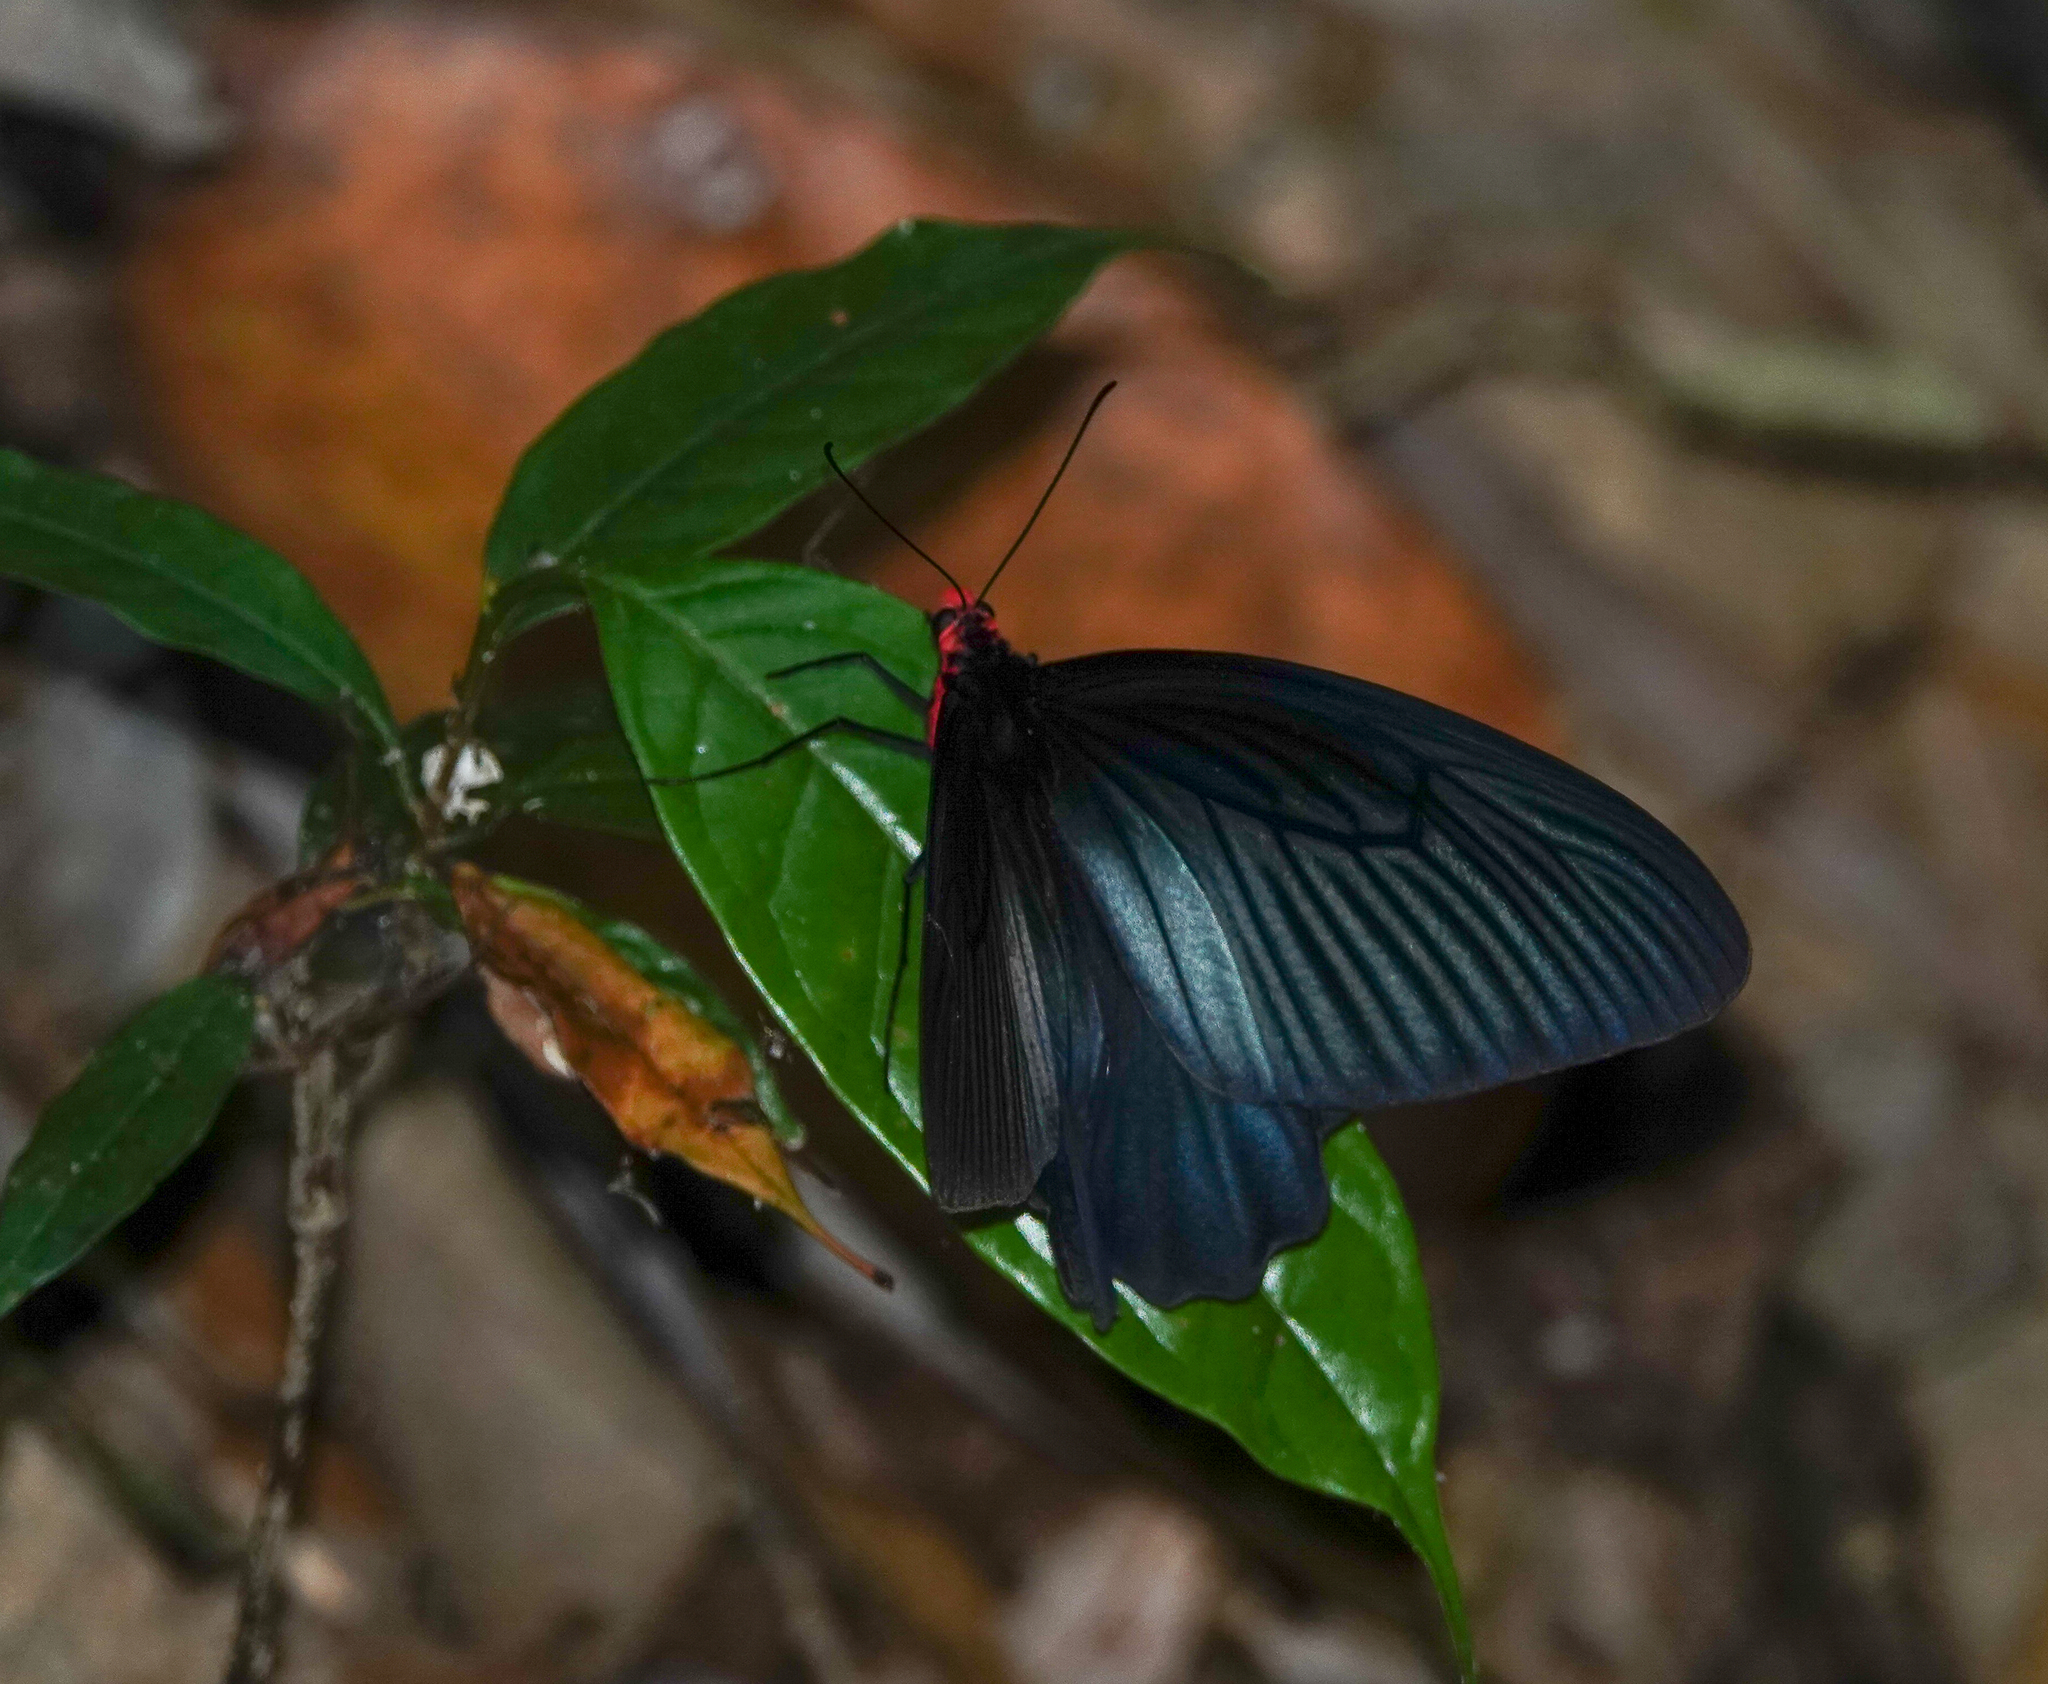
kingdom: Animalia
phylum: Arthropoda
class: Insecta
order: Lepidoptera
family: Papilionidae
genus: Papilio
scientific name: Papilio protenor
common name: Spangle
